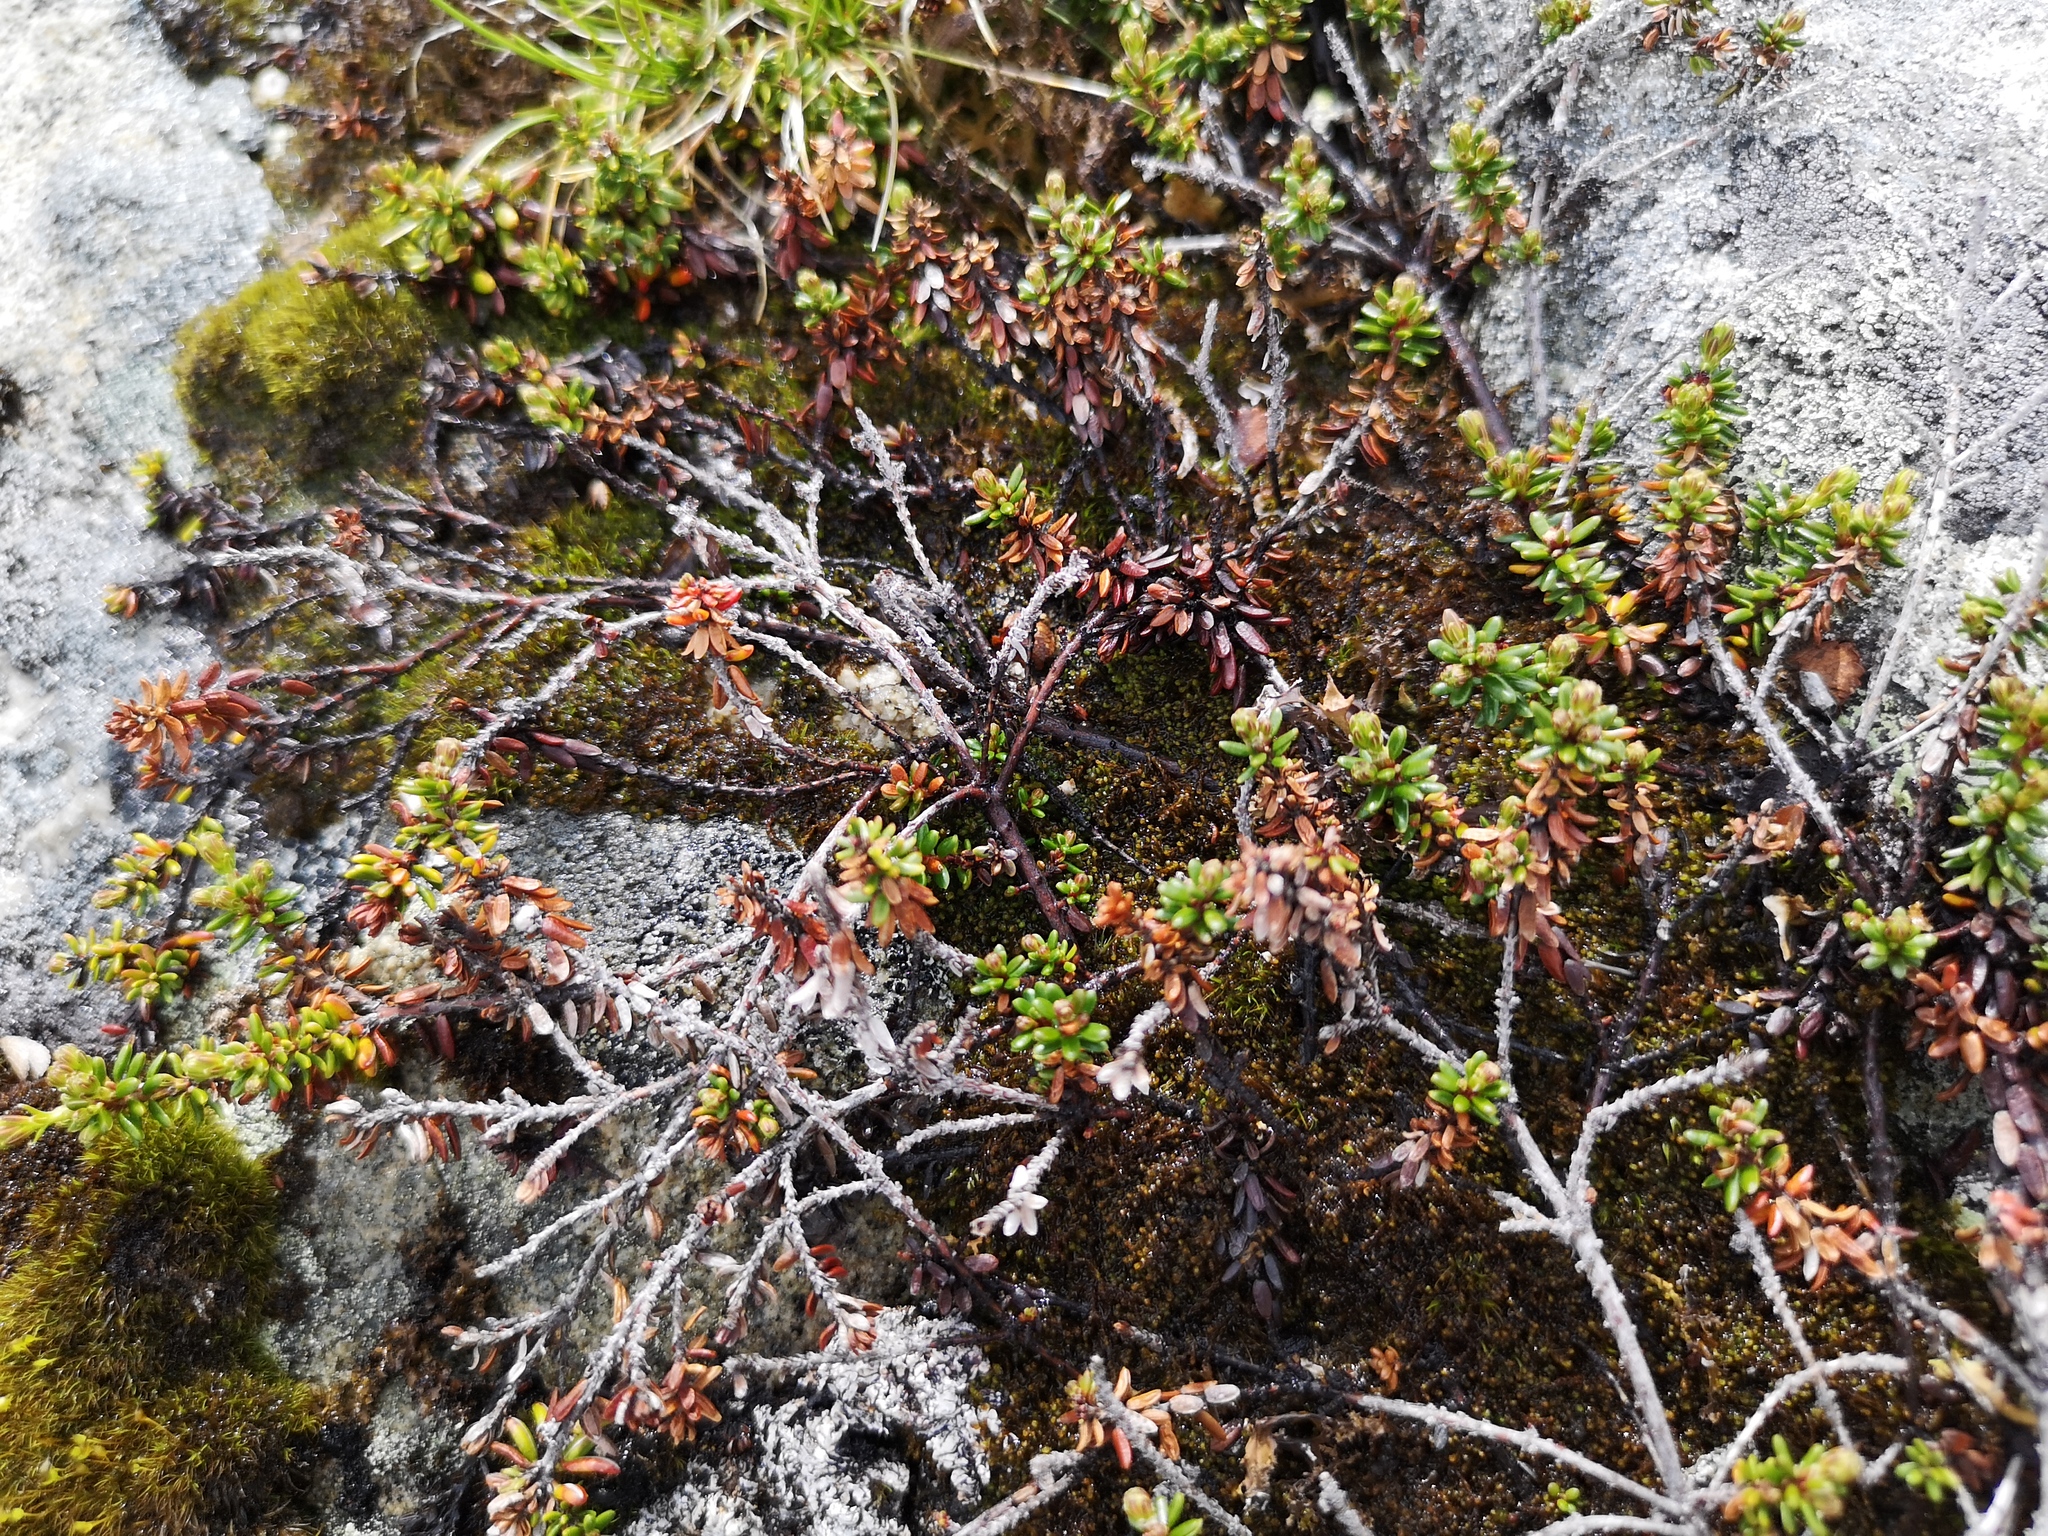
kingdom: Plantae
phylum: Tracheophyta
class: Magnoliopsida
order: Ericales
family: Ericaceae
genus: Empetrum
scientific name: Empetrum nigrum
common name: Black crowberry
